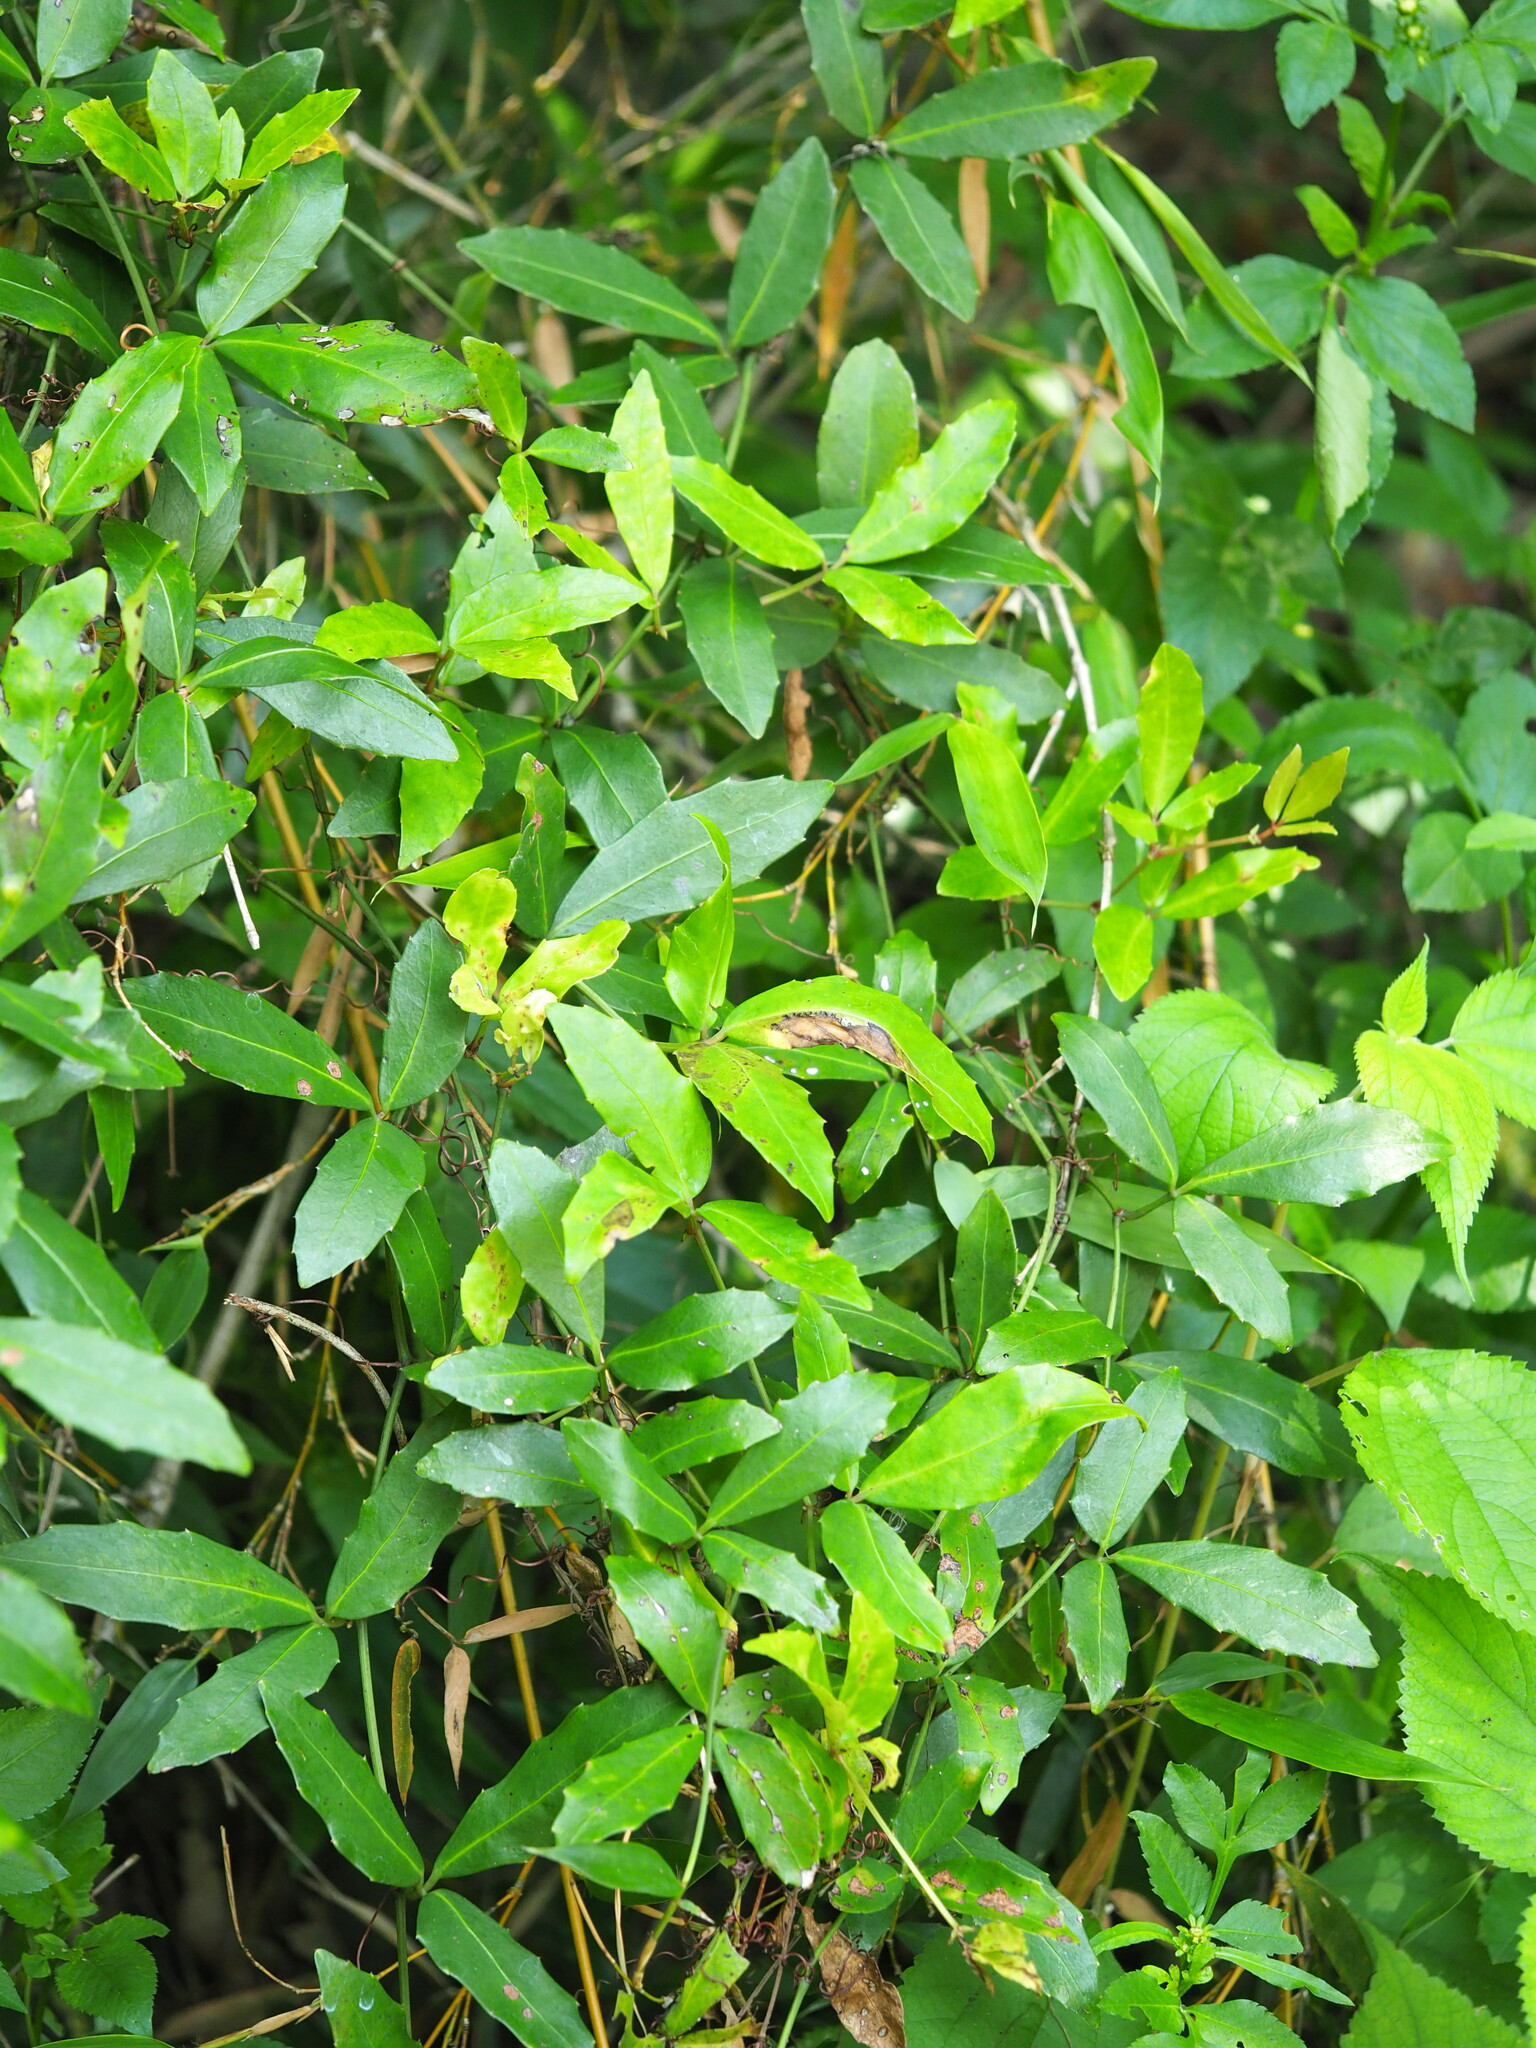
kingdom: Plantae
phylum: Tracheophyta
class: Magnoliopsida
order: Vitales
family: Vitaceae
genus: Tetrastigma
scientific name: Tetrastigma formosanum
